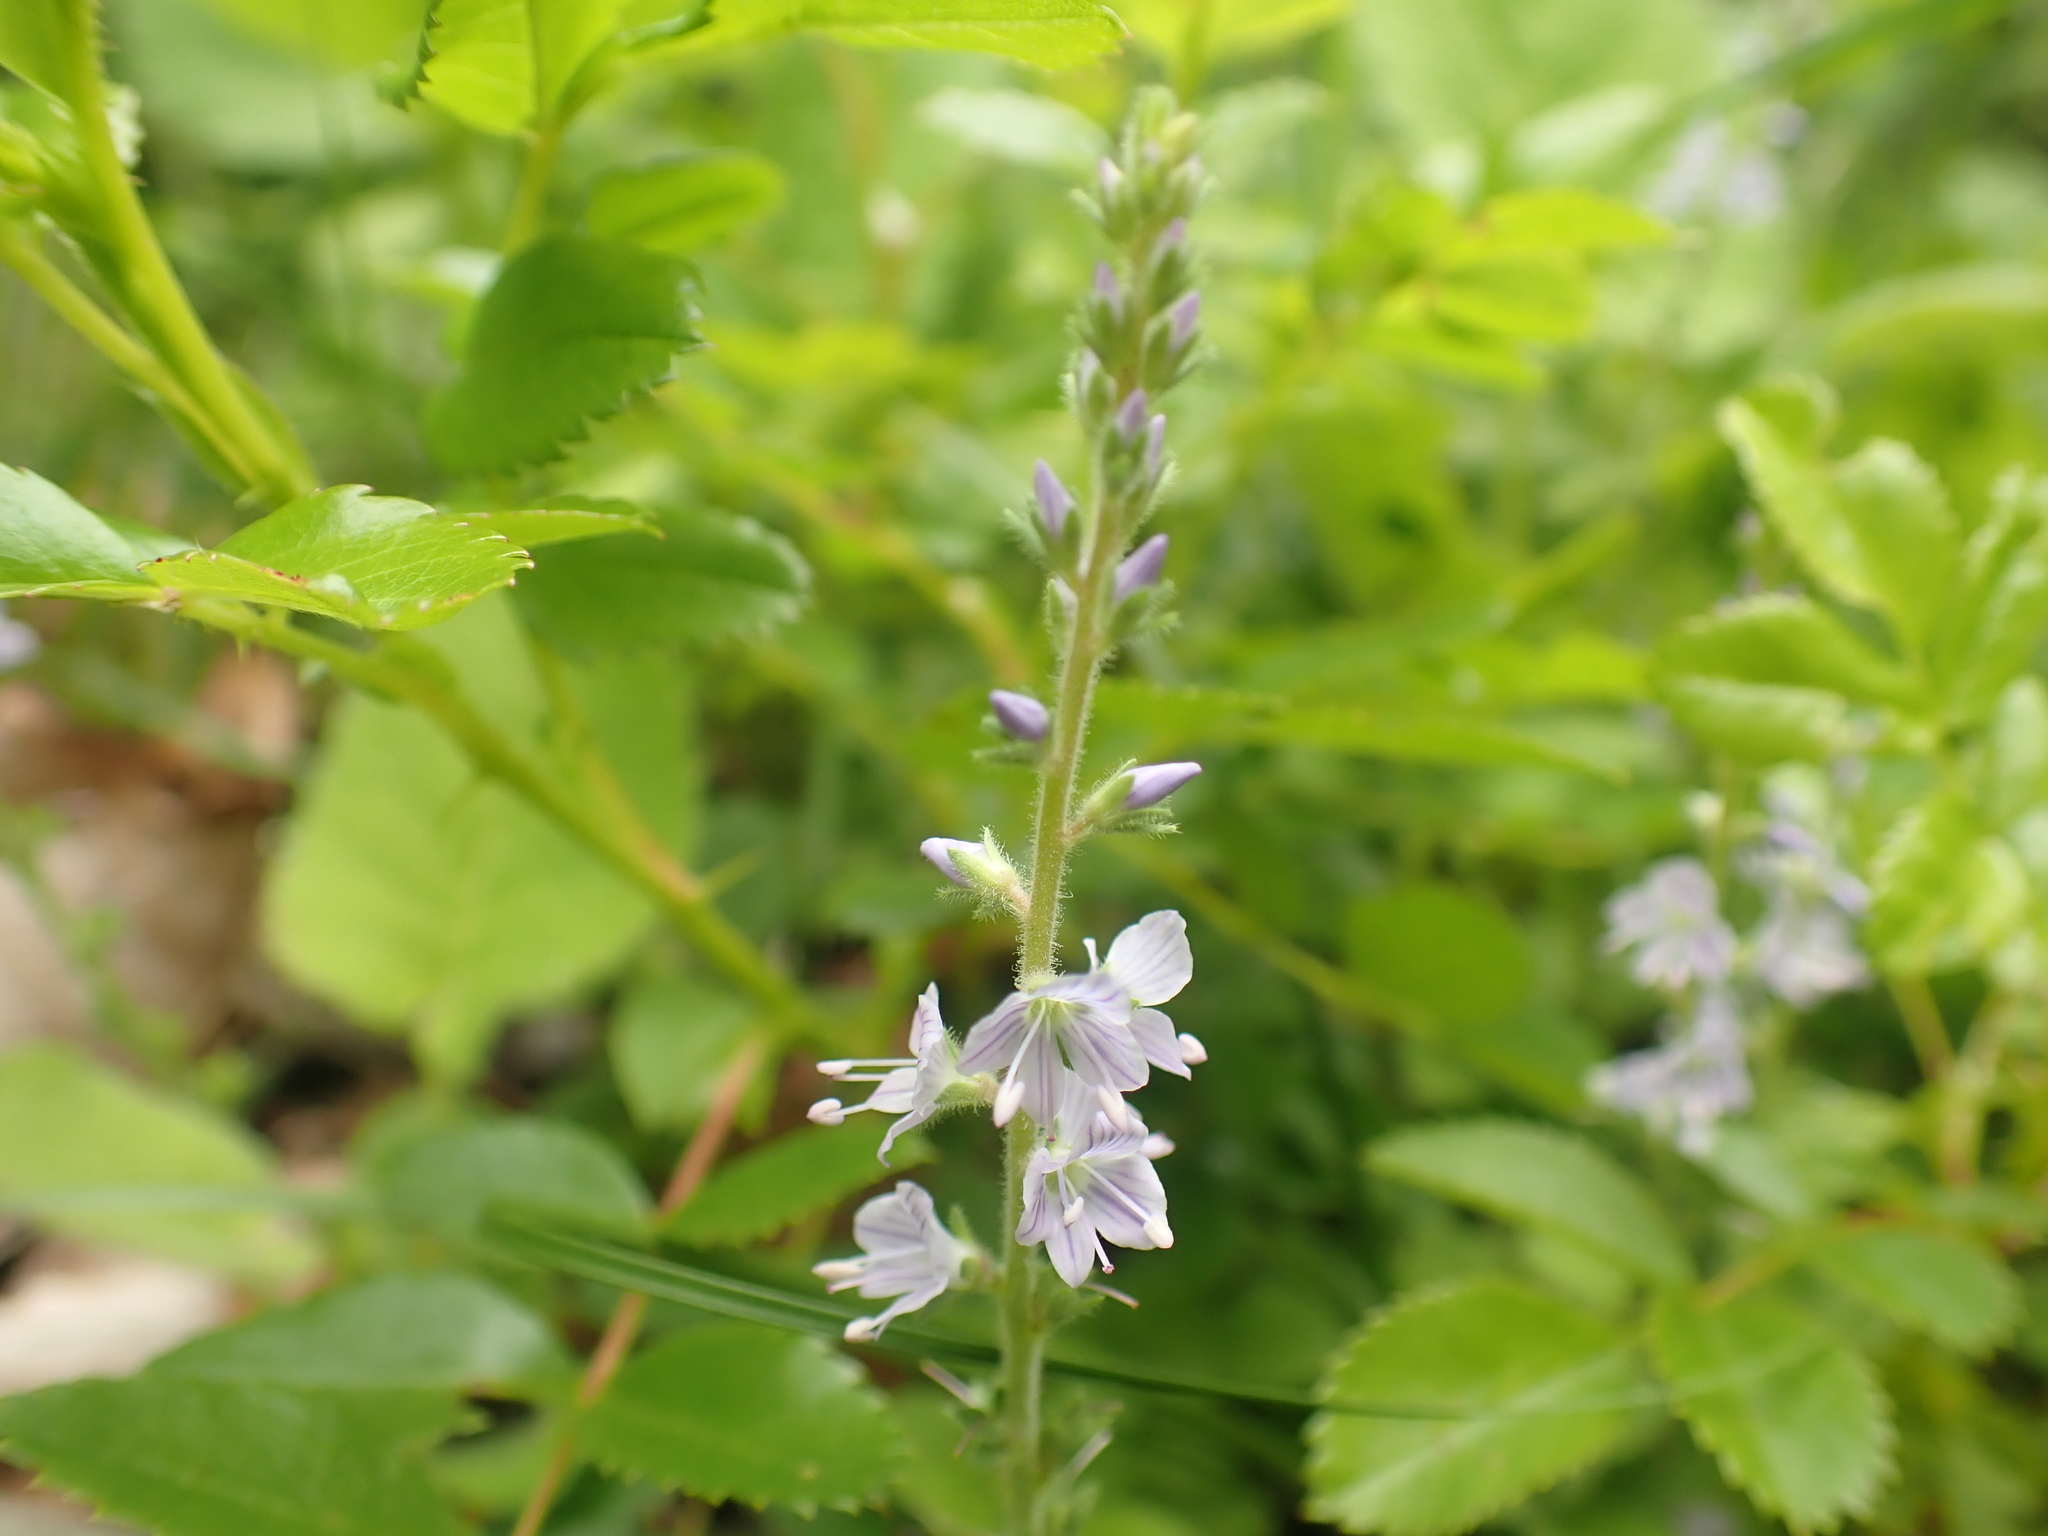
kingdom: Plantae
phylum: Tracheophyta
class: Magnoliopsida
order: Lamiales
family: Plantaginaceae
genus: Veronica
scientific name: Veronica officinalis
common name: Common speedwell
